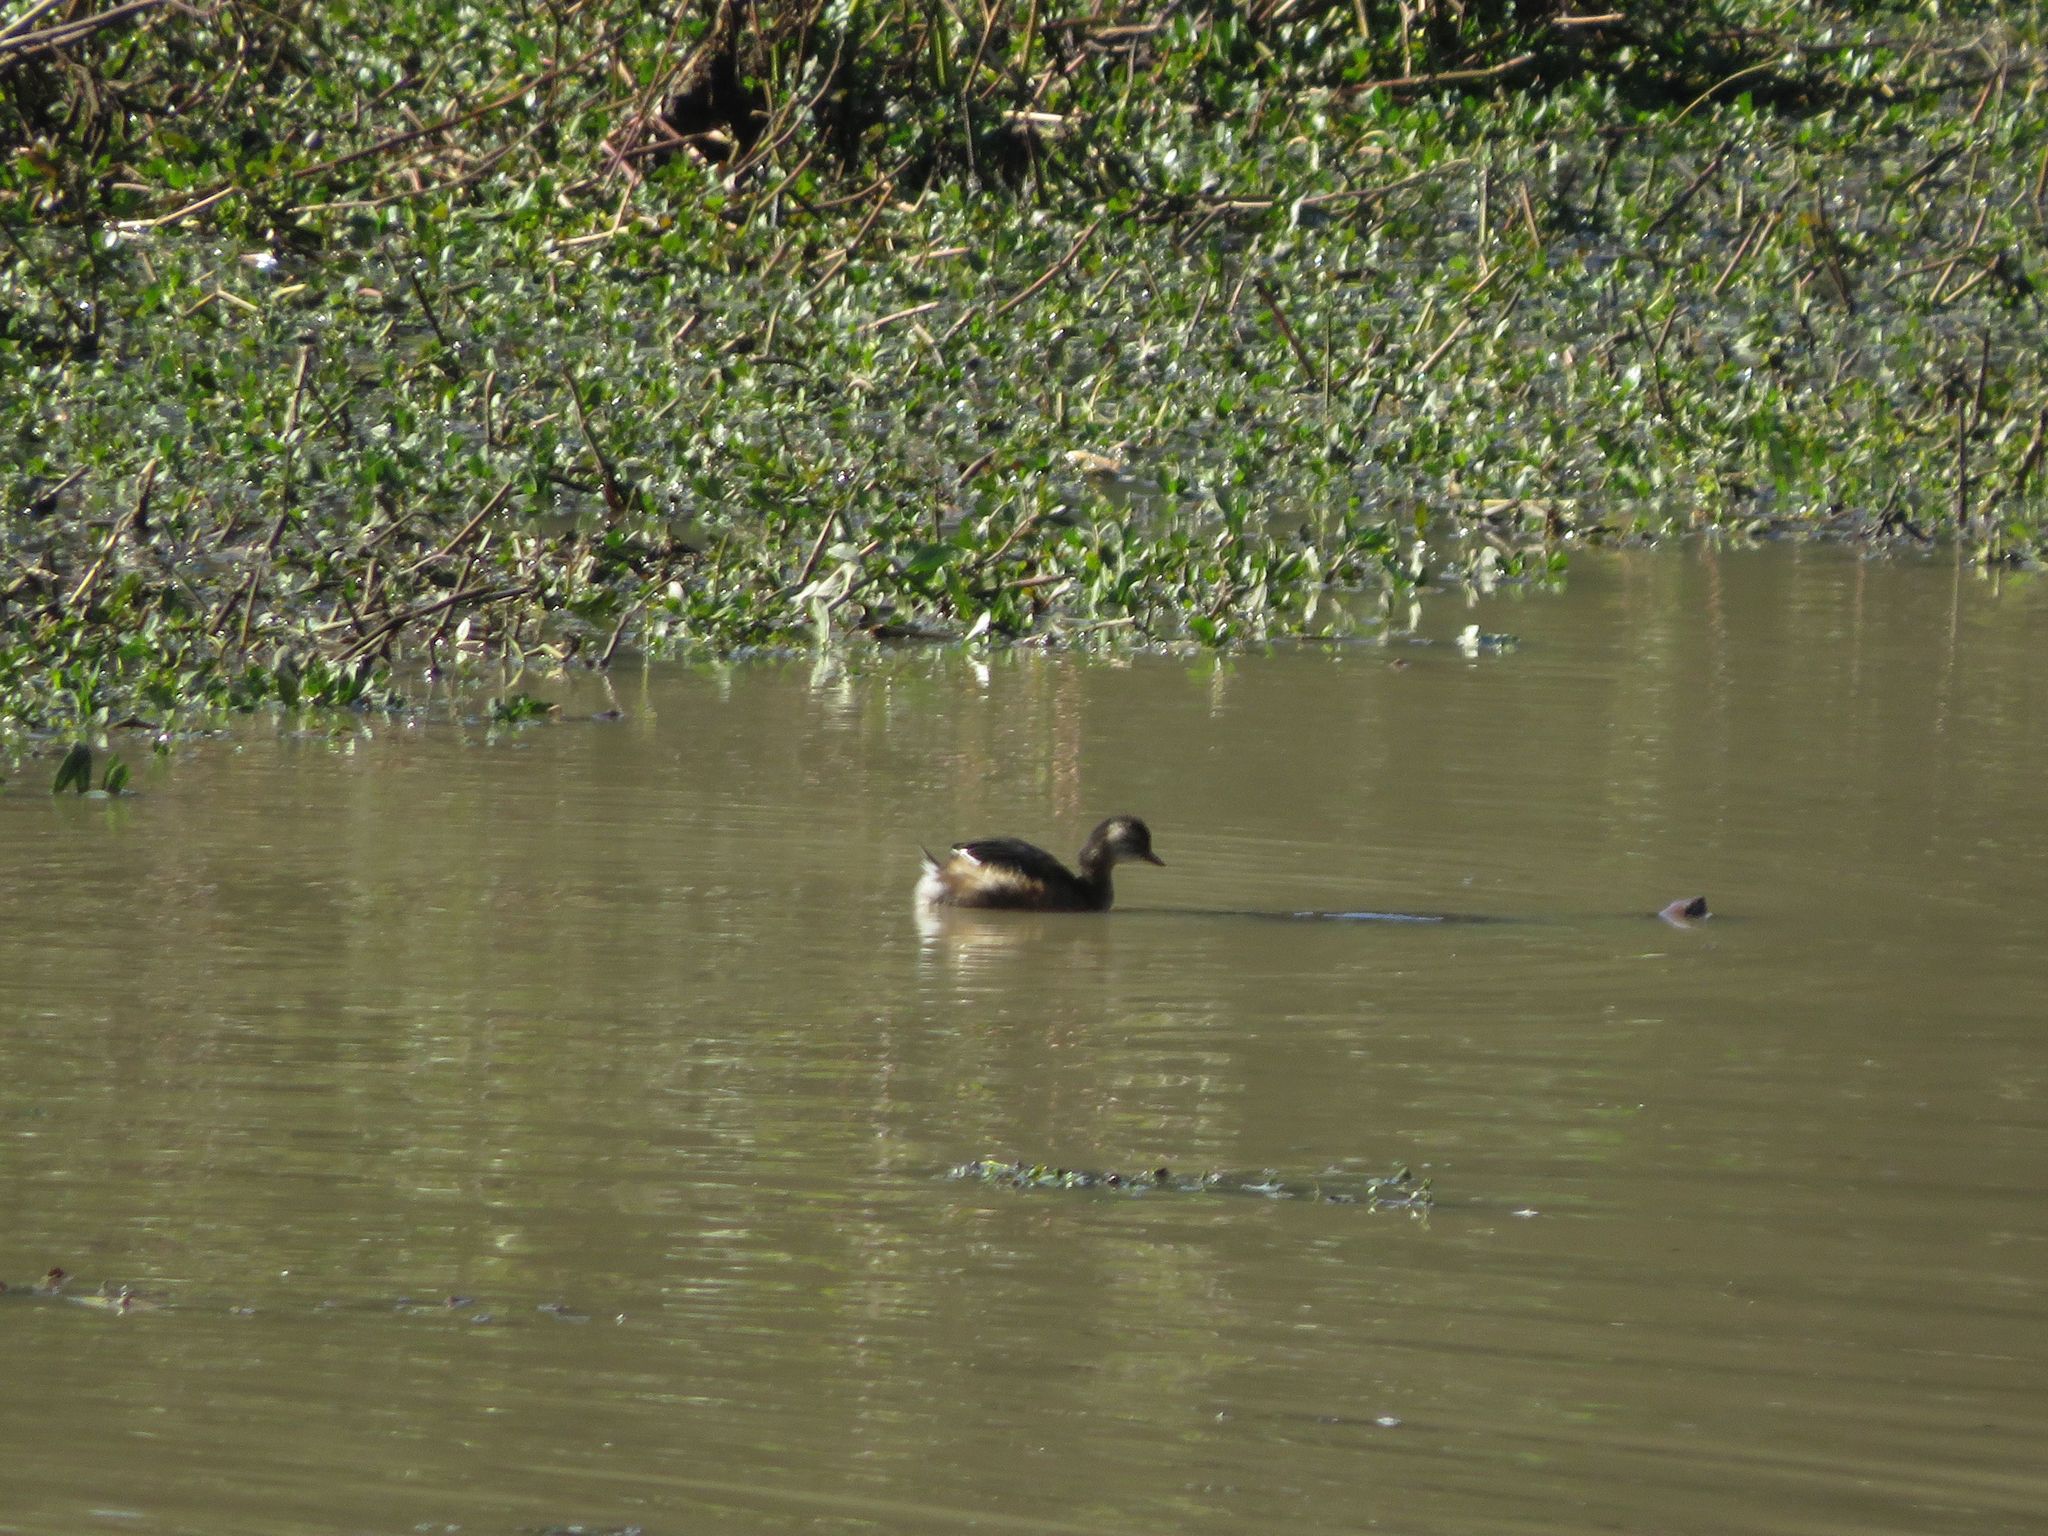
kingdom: Animalia
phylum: Chordata
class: Aves
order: Podicipediformes
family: Podicipedidae
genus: Rollandia
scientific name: Rollandia rolland
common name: White-tufted grebe
